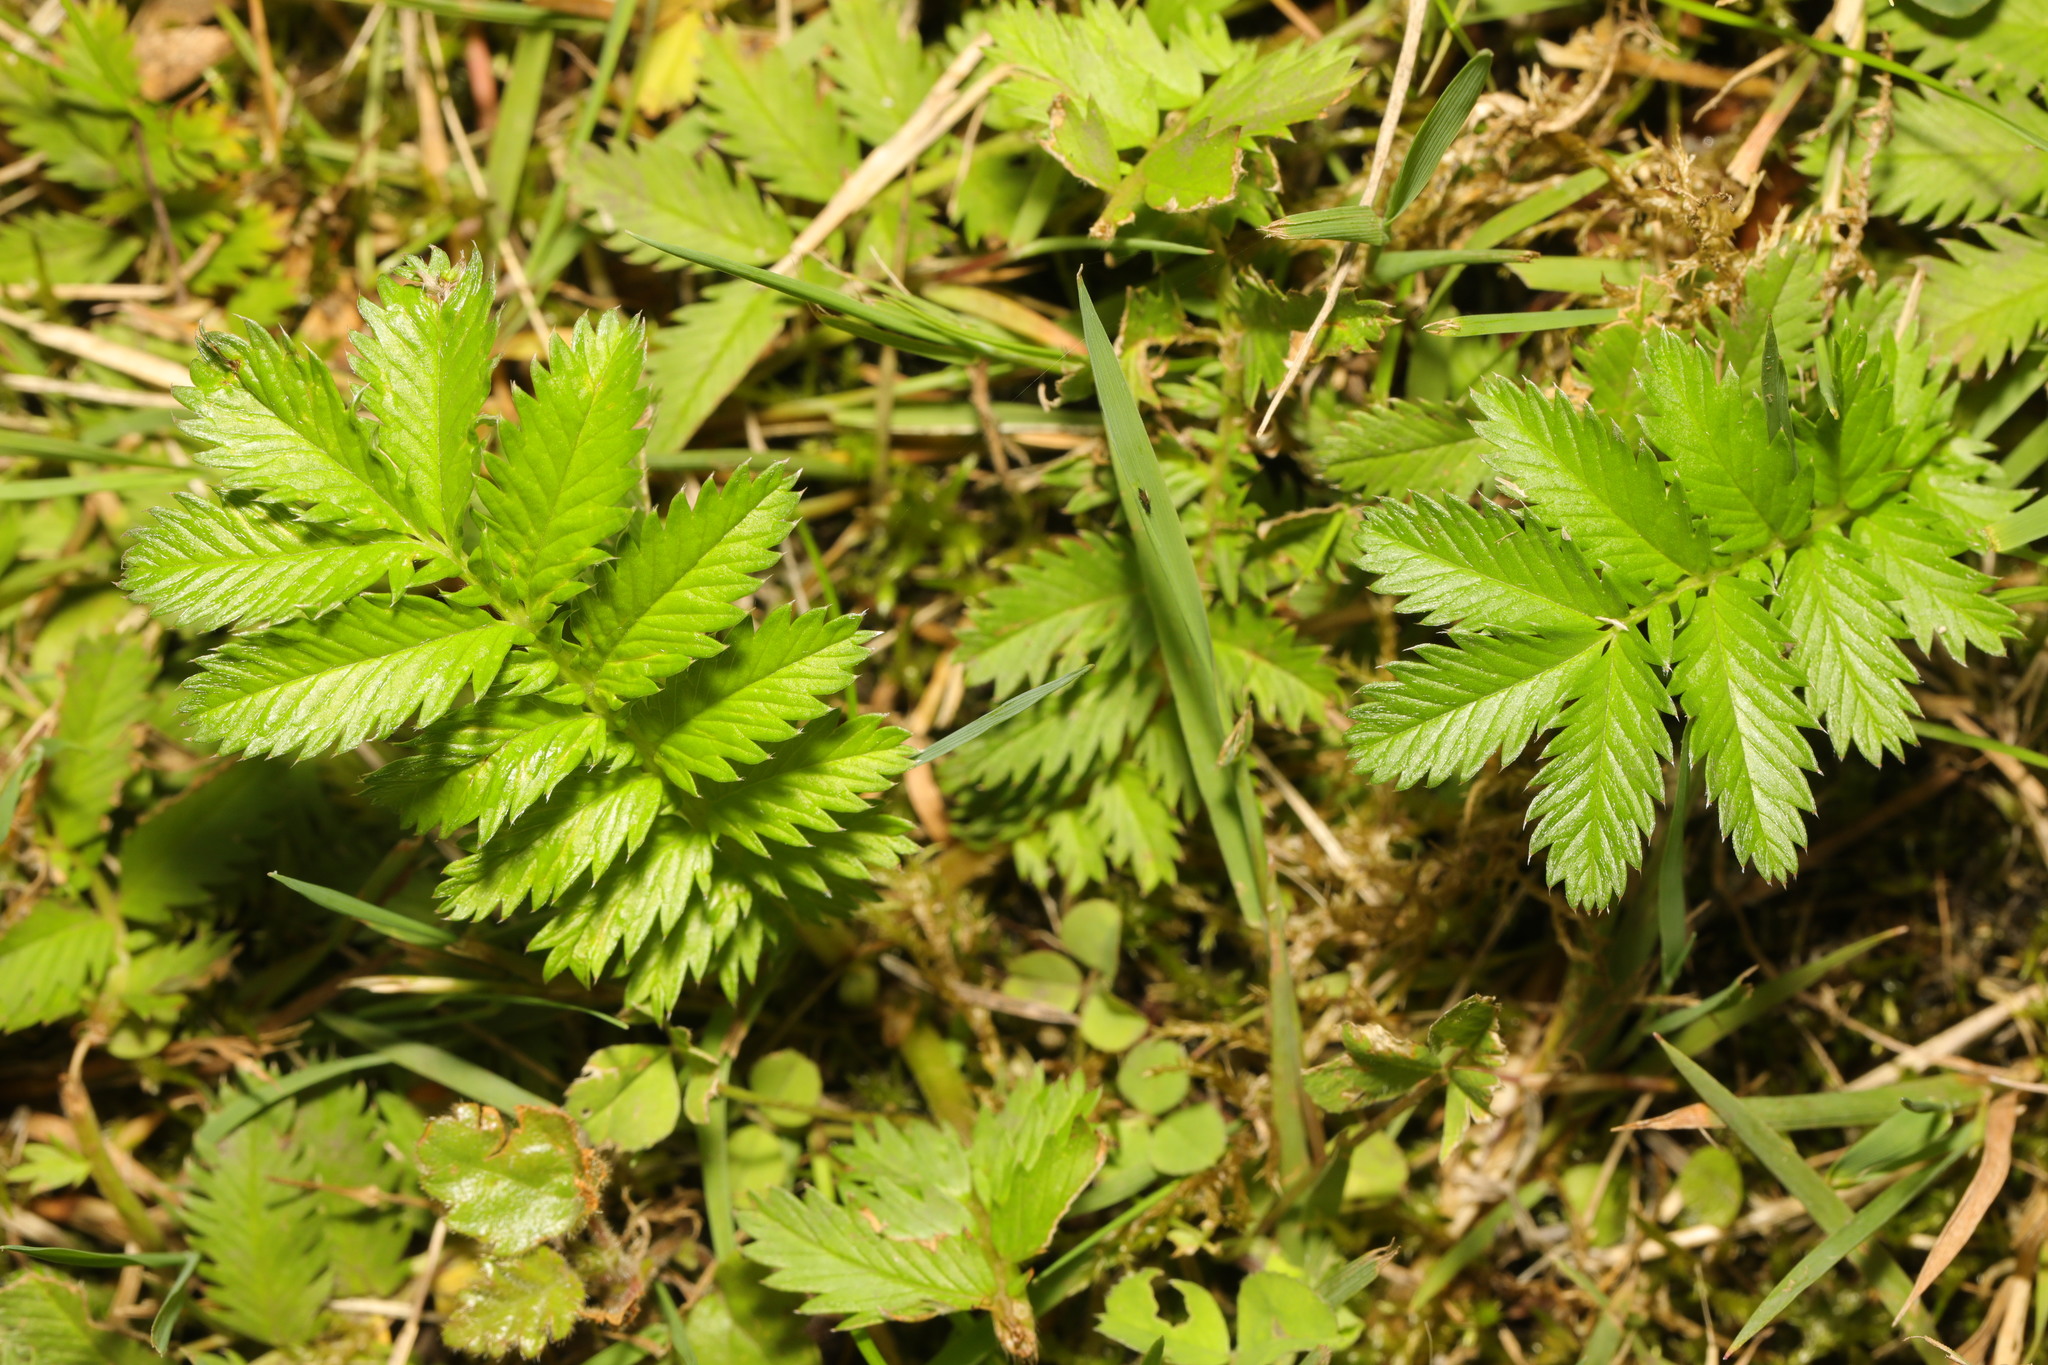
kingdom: Plantae
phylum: Tracheophyta
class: Magnoliopsida
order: Rosales
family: Rosaceae
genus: Argentina
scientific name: Argentina anserina
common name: Common silverweed
